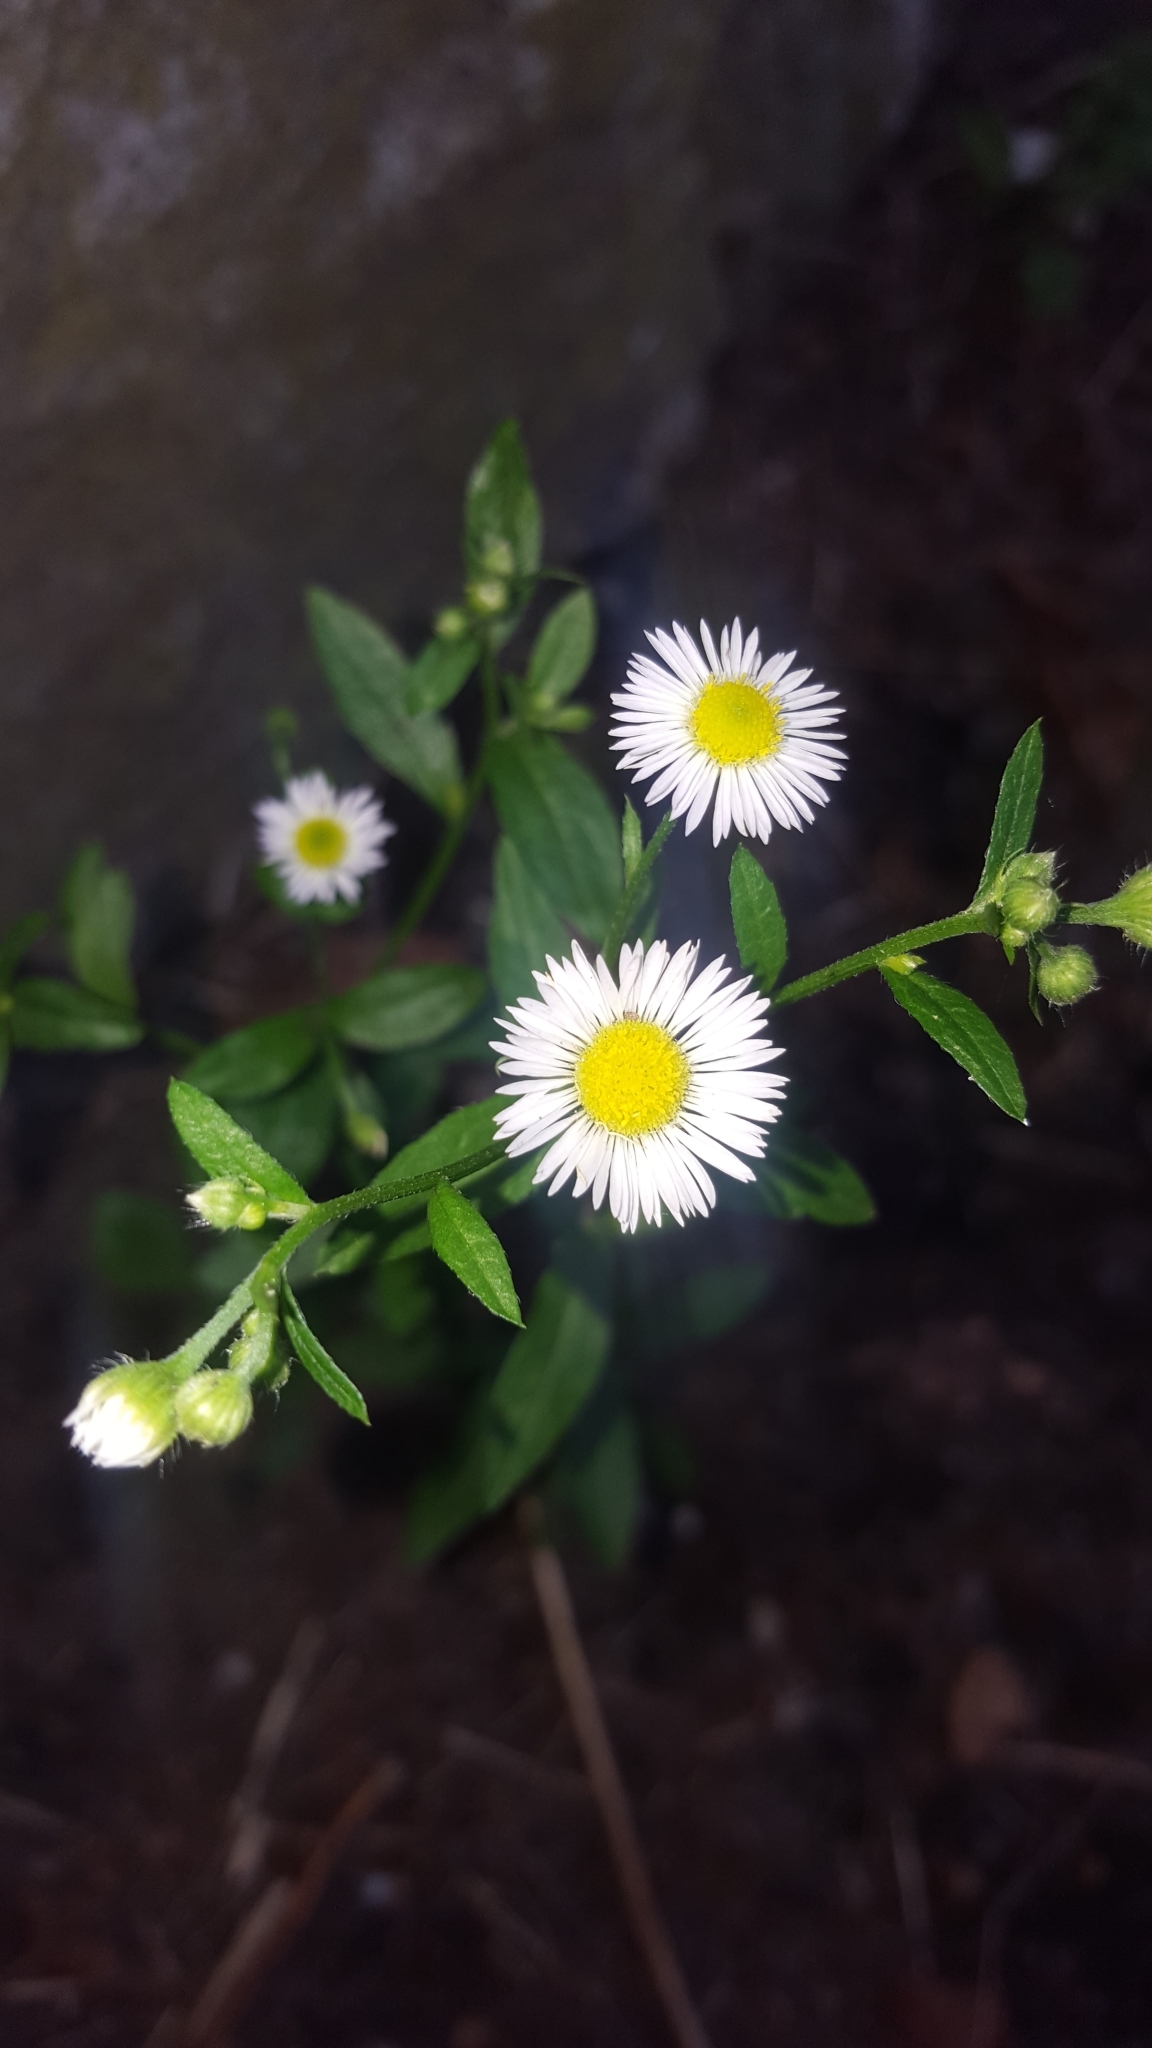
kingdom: Plantae
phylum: Tracheophyta
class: Magnoliopsida
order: Asterales
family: Asteraceae
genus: Erigeron
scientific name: Erigeron annuus
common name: Tall fleabane
